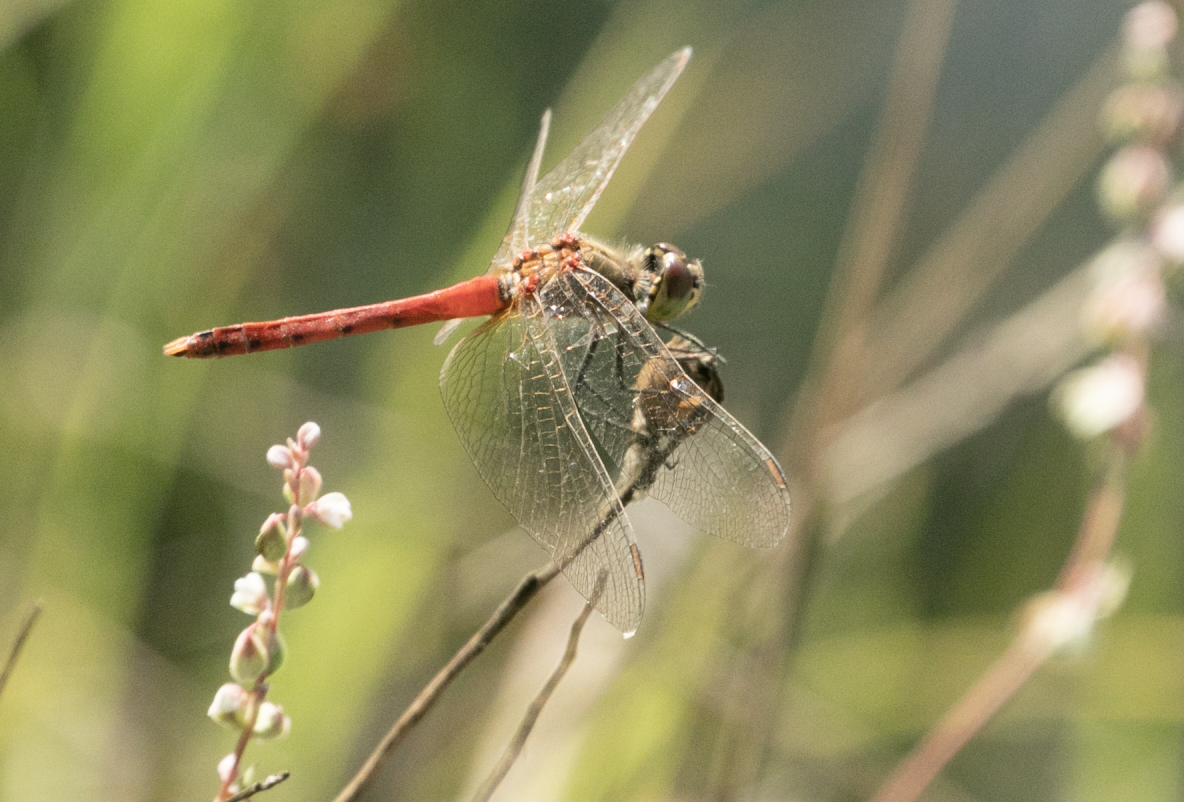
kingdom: Animalia
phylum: Arthropoda
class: Insecta
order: Odonata
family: Libellulidae
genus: Sympetrum
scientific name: Sympetrum depressiusculum
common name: Spotted darter
